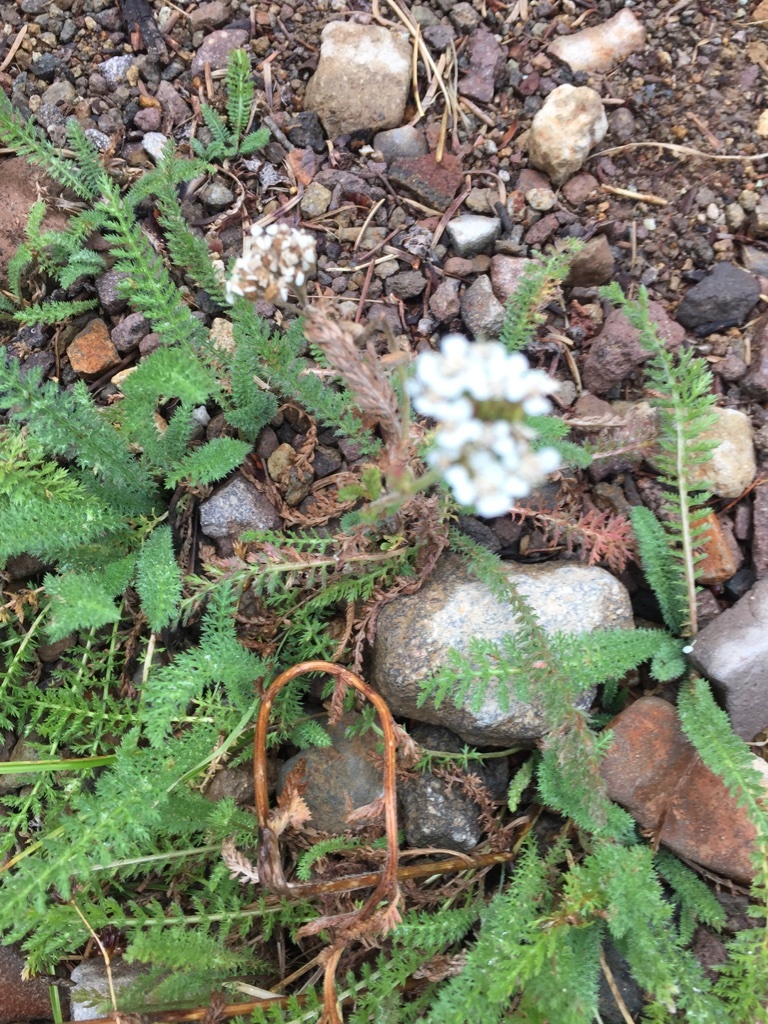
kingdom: Plantae
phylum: Tracheophyta
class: Magnoliopsida
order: Asterales
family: Asteraceae
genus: Achillea
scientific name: Achillea millefolium
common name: Yarrow
